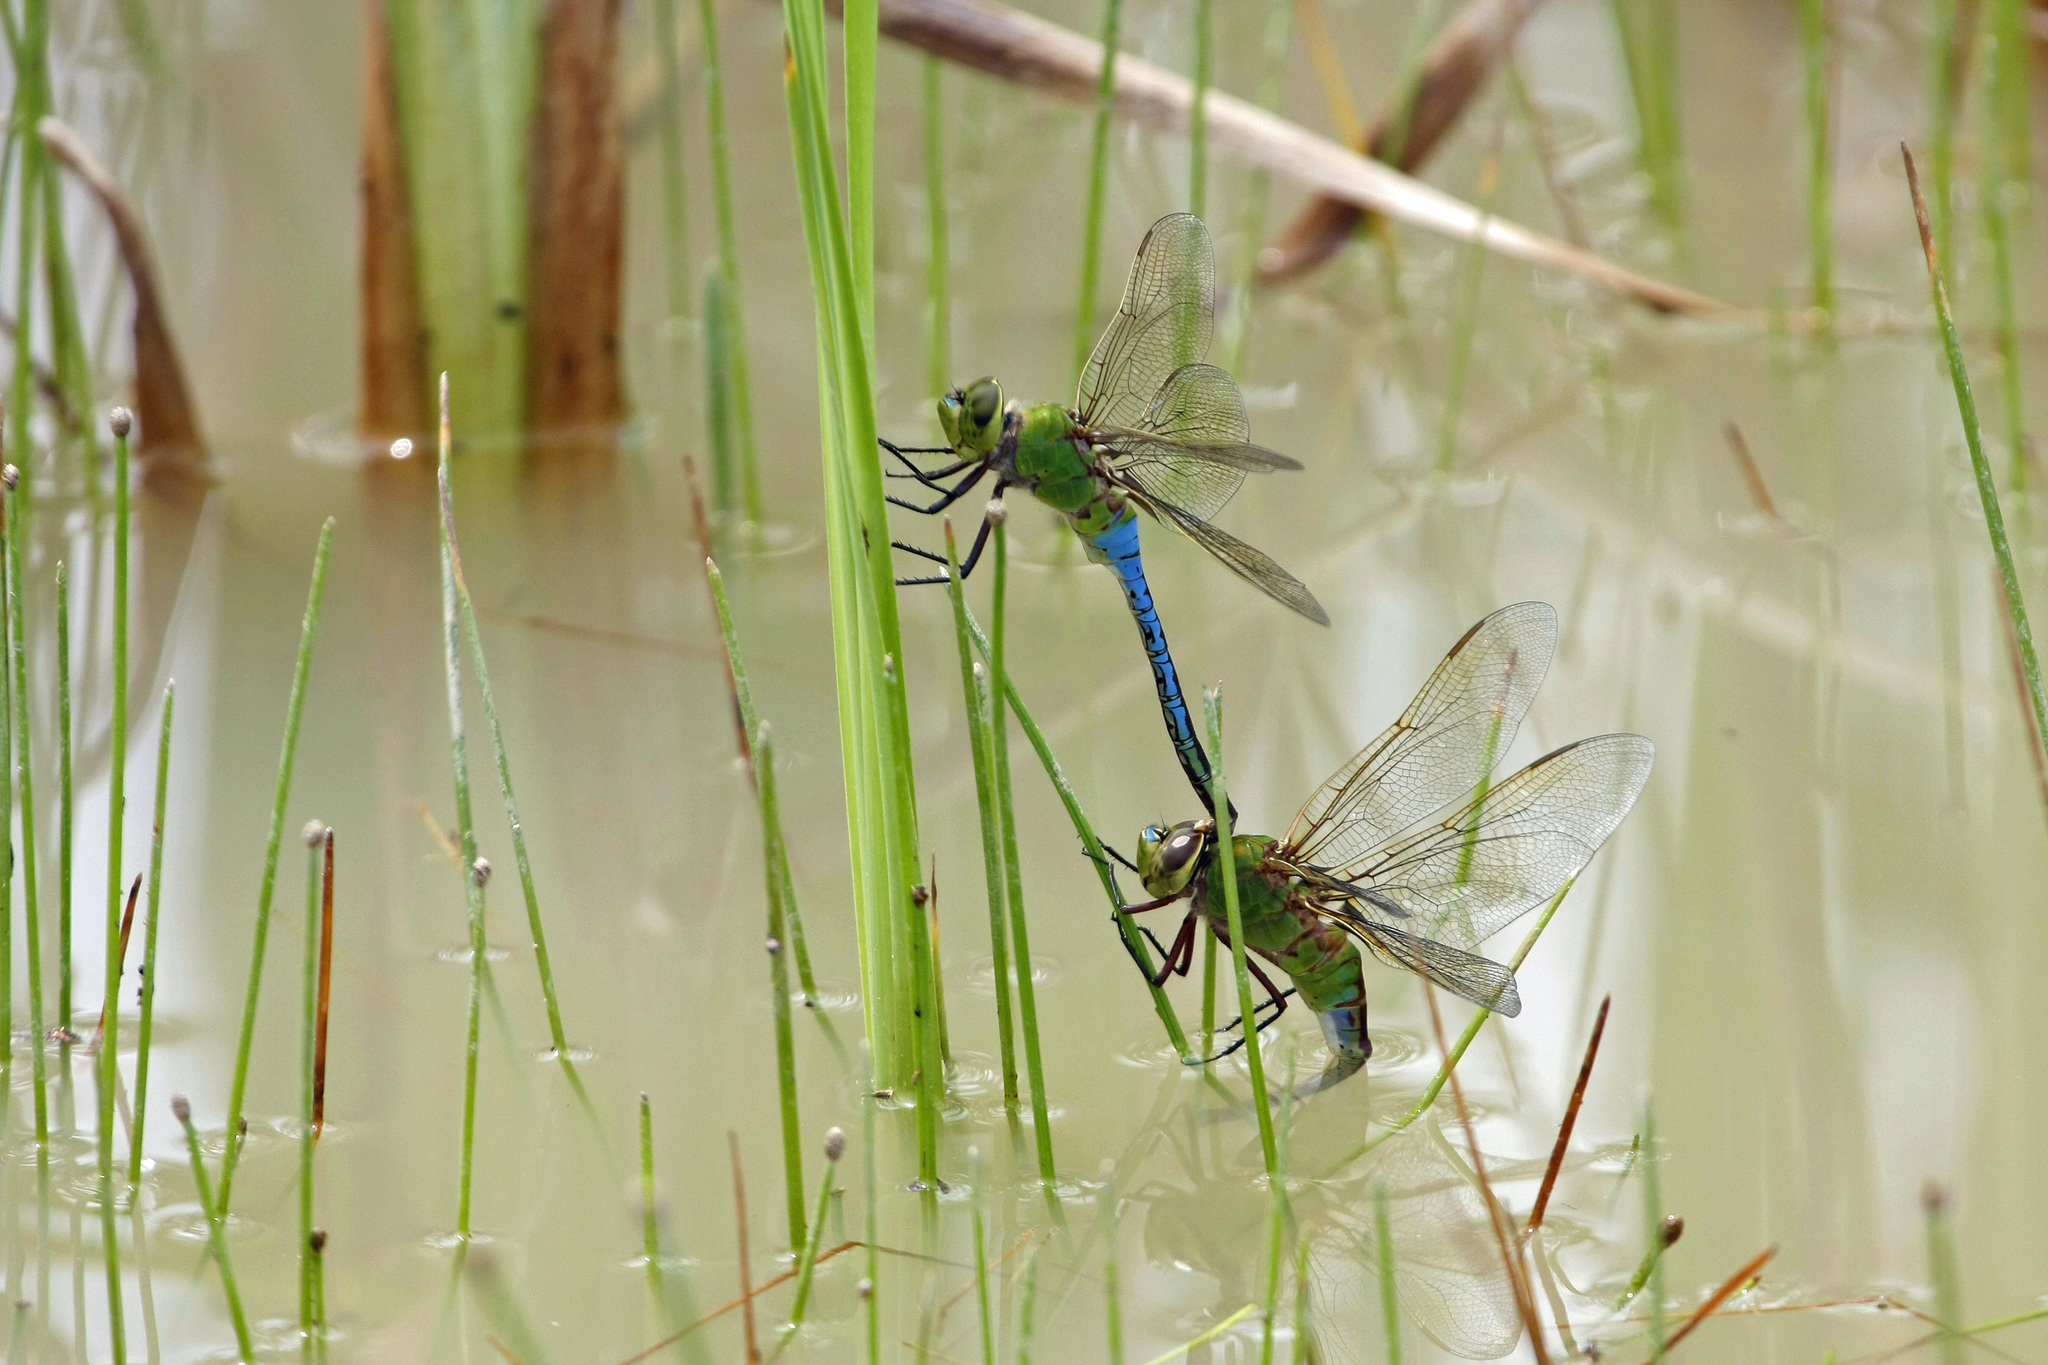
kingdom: Animalia
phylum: Arthropoda
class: Insecta
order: Odonata
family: Aeshnidae
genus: Anax
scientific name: Anax junius
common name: Common green darner
